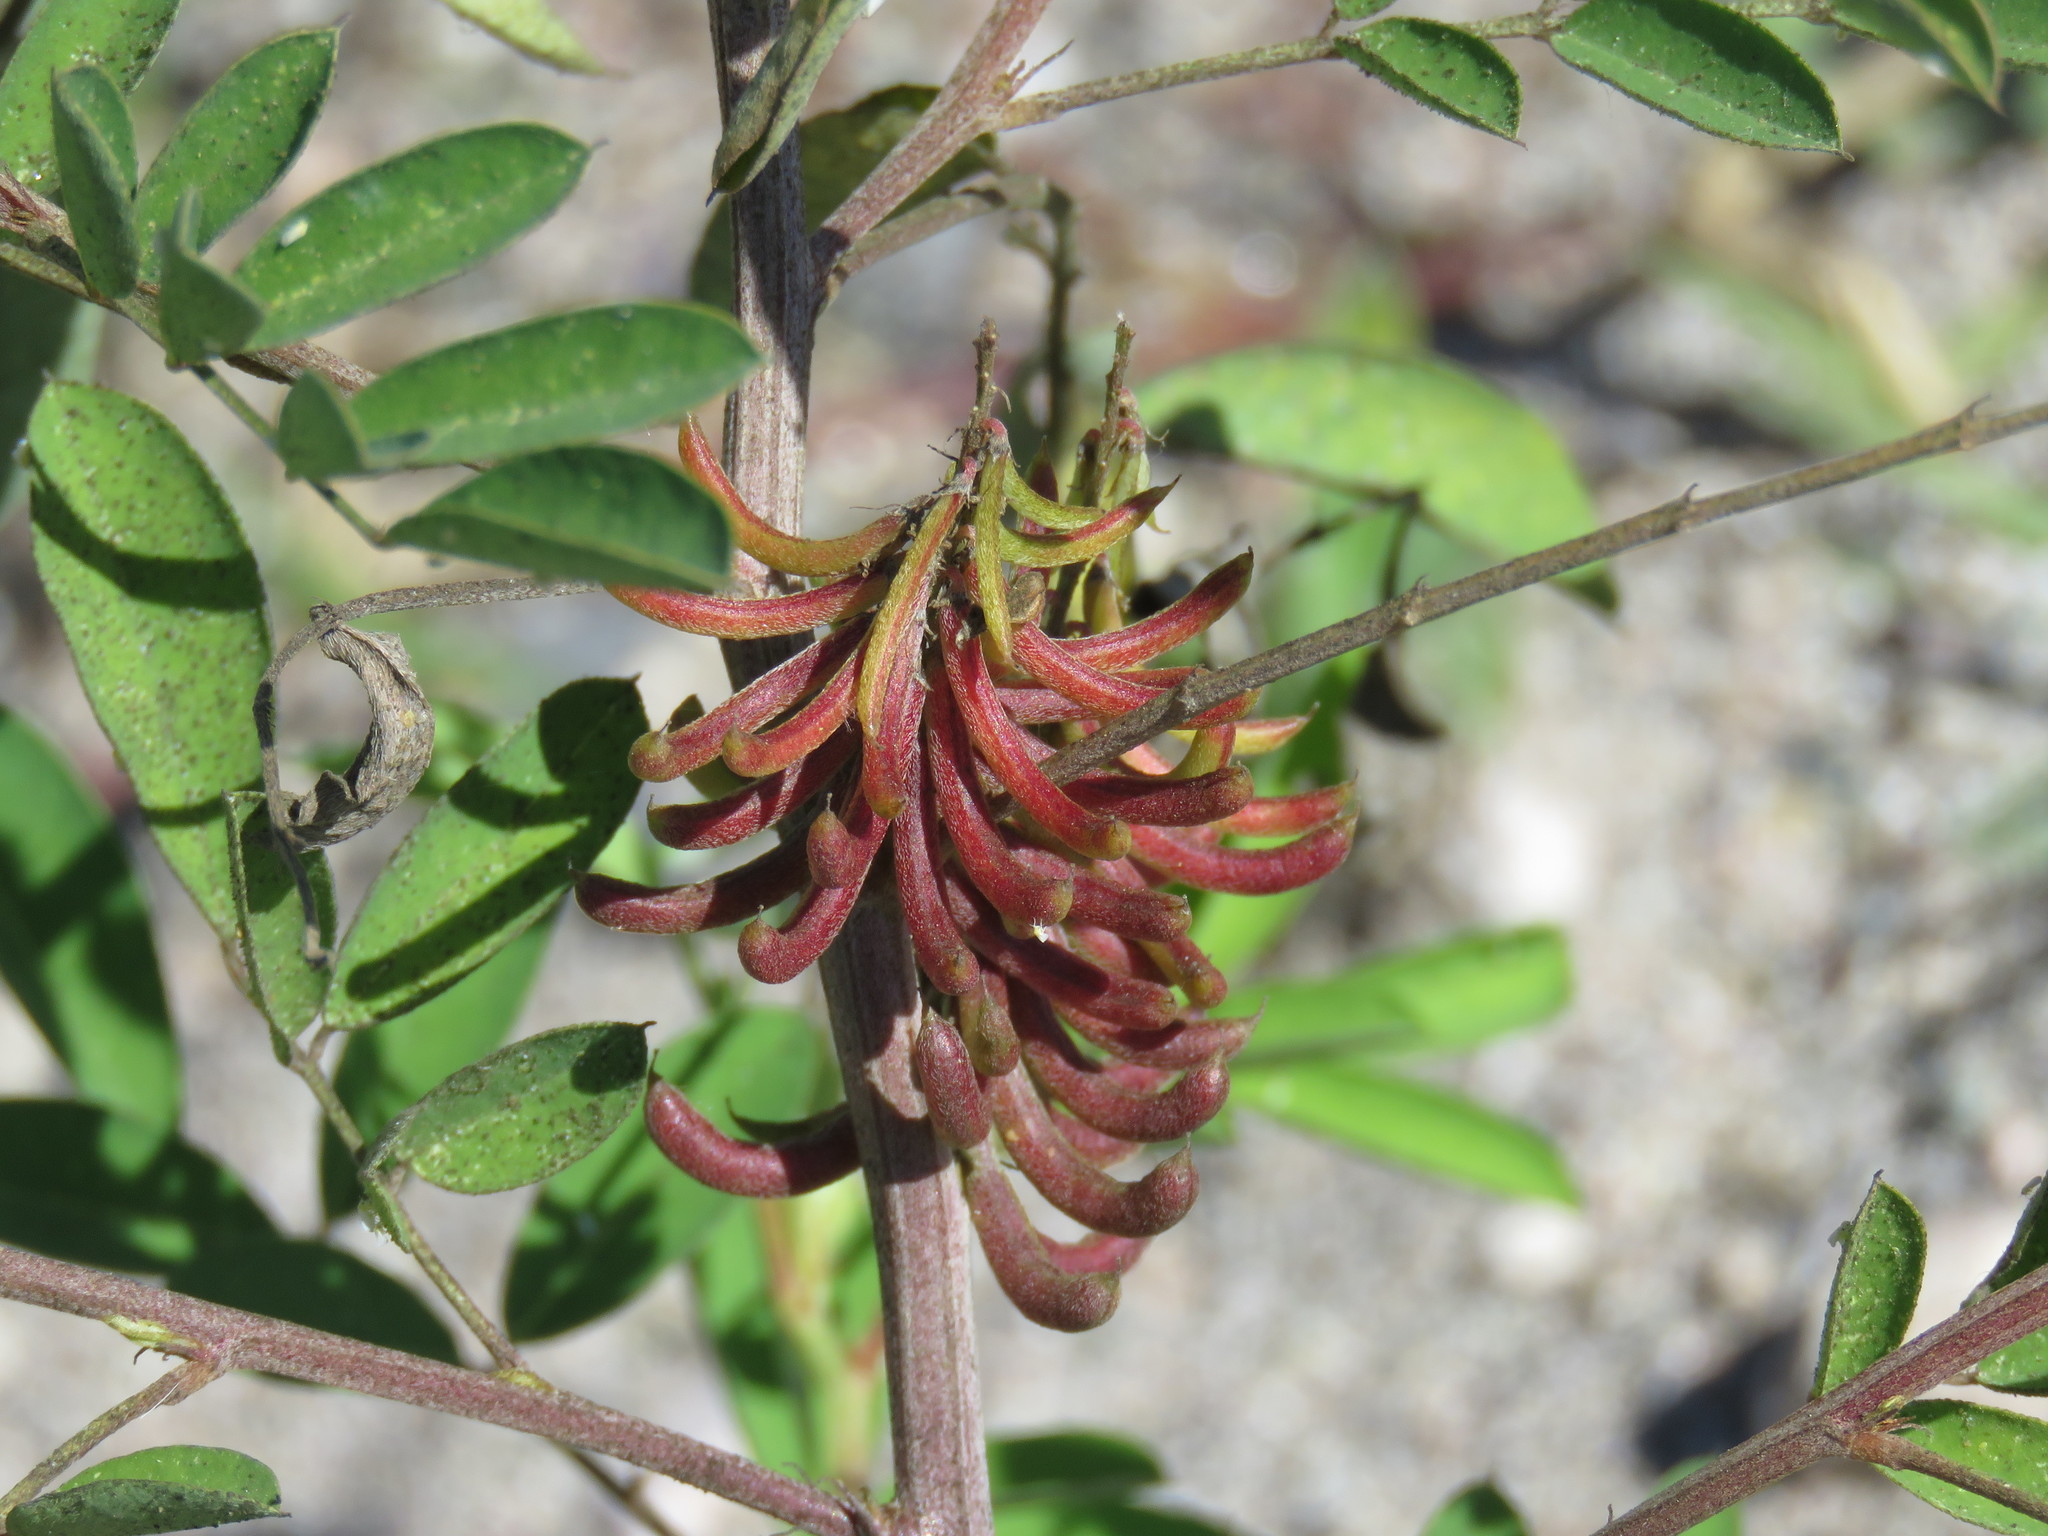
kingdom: Plantae
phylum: Tracheophyta
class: Magnoliopsida
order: Fabales
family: Fabaceae
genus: Indigofera
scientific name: Indigofera suffruticosa
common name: Anil de pasto
